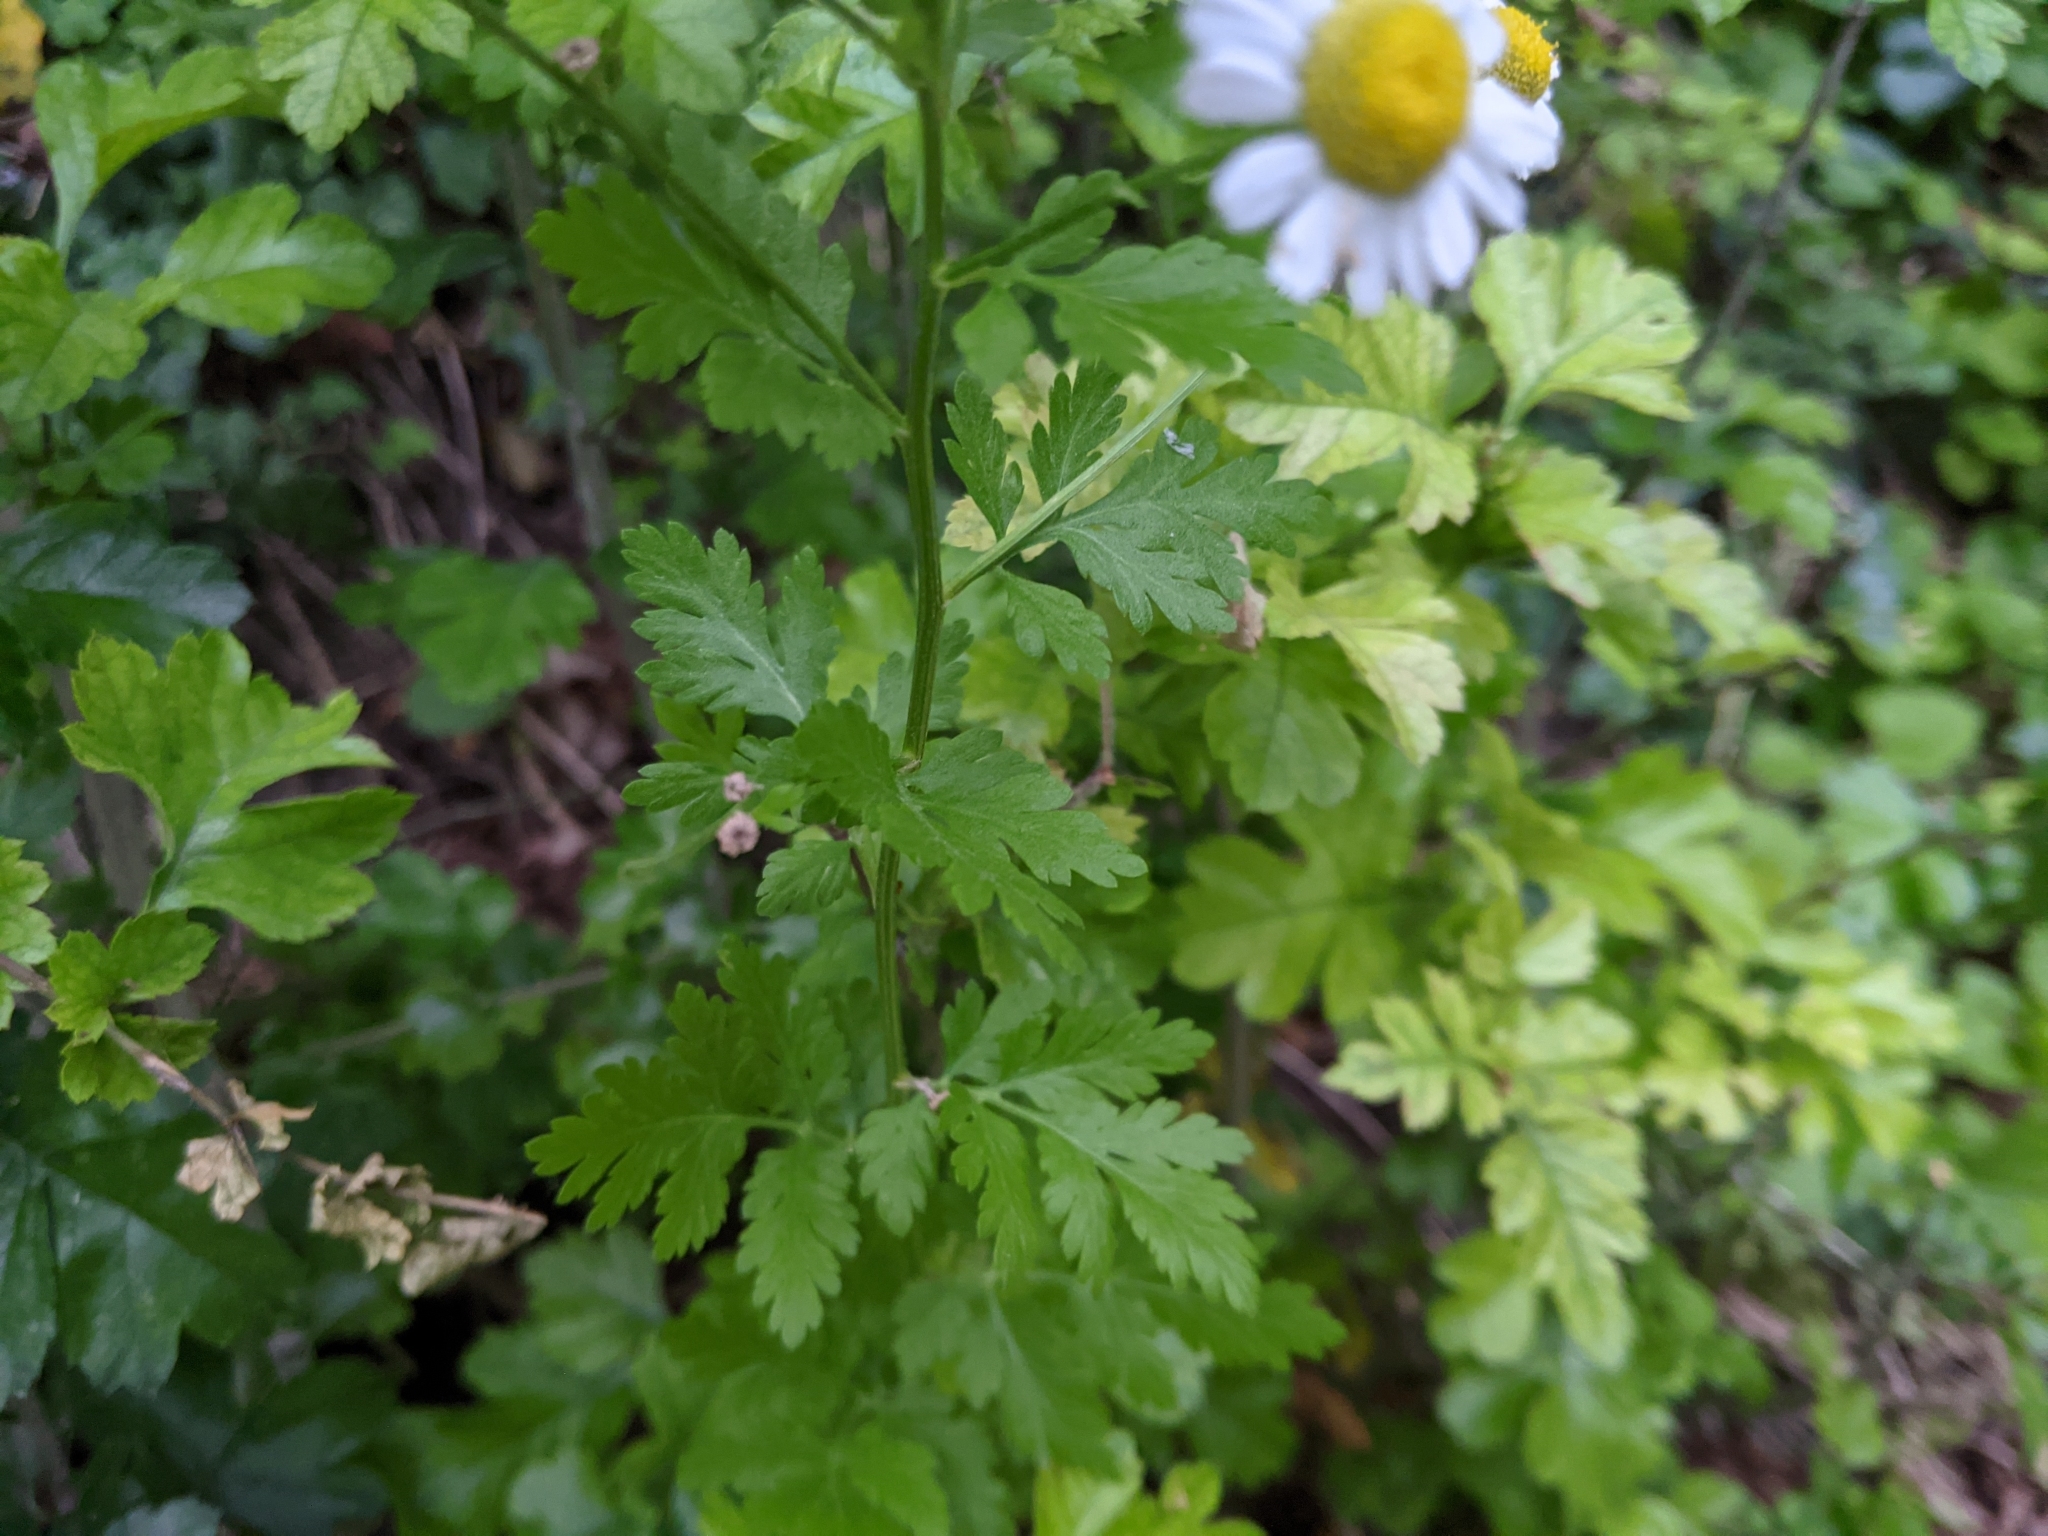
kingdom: Plantae
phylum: Tracheophyta
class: Magnoliopsida
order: Asterales
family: Asteraceae
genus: Tanacetum
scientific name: Tanacetum parthenium
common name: Feverfew
